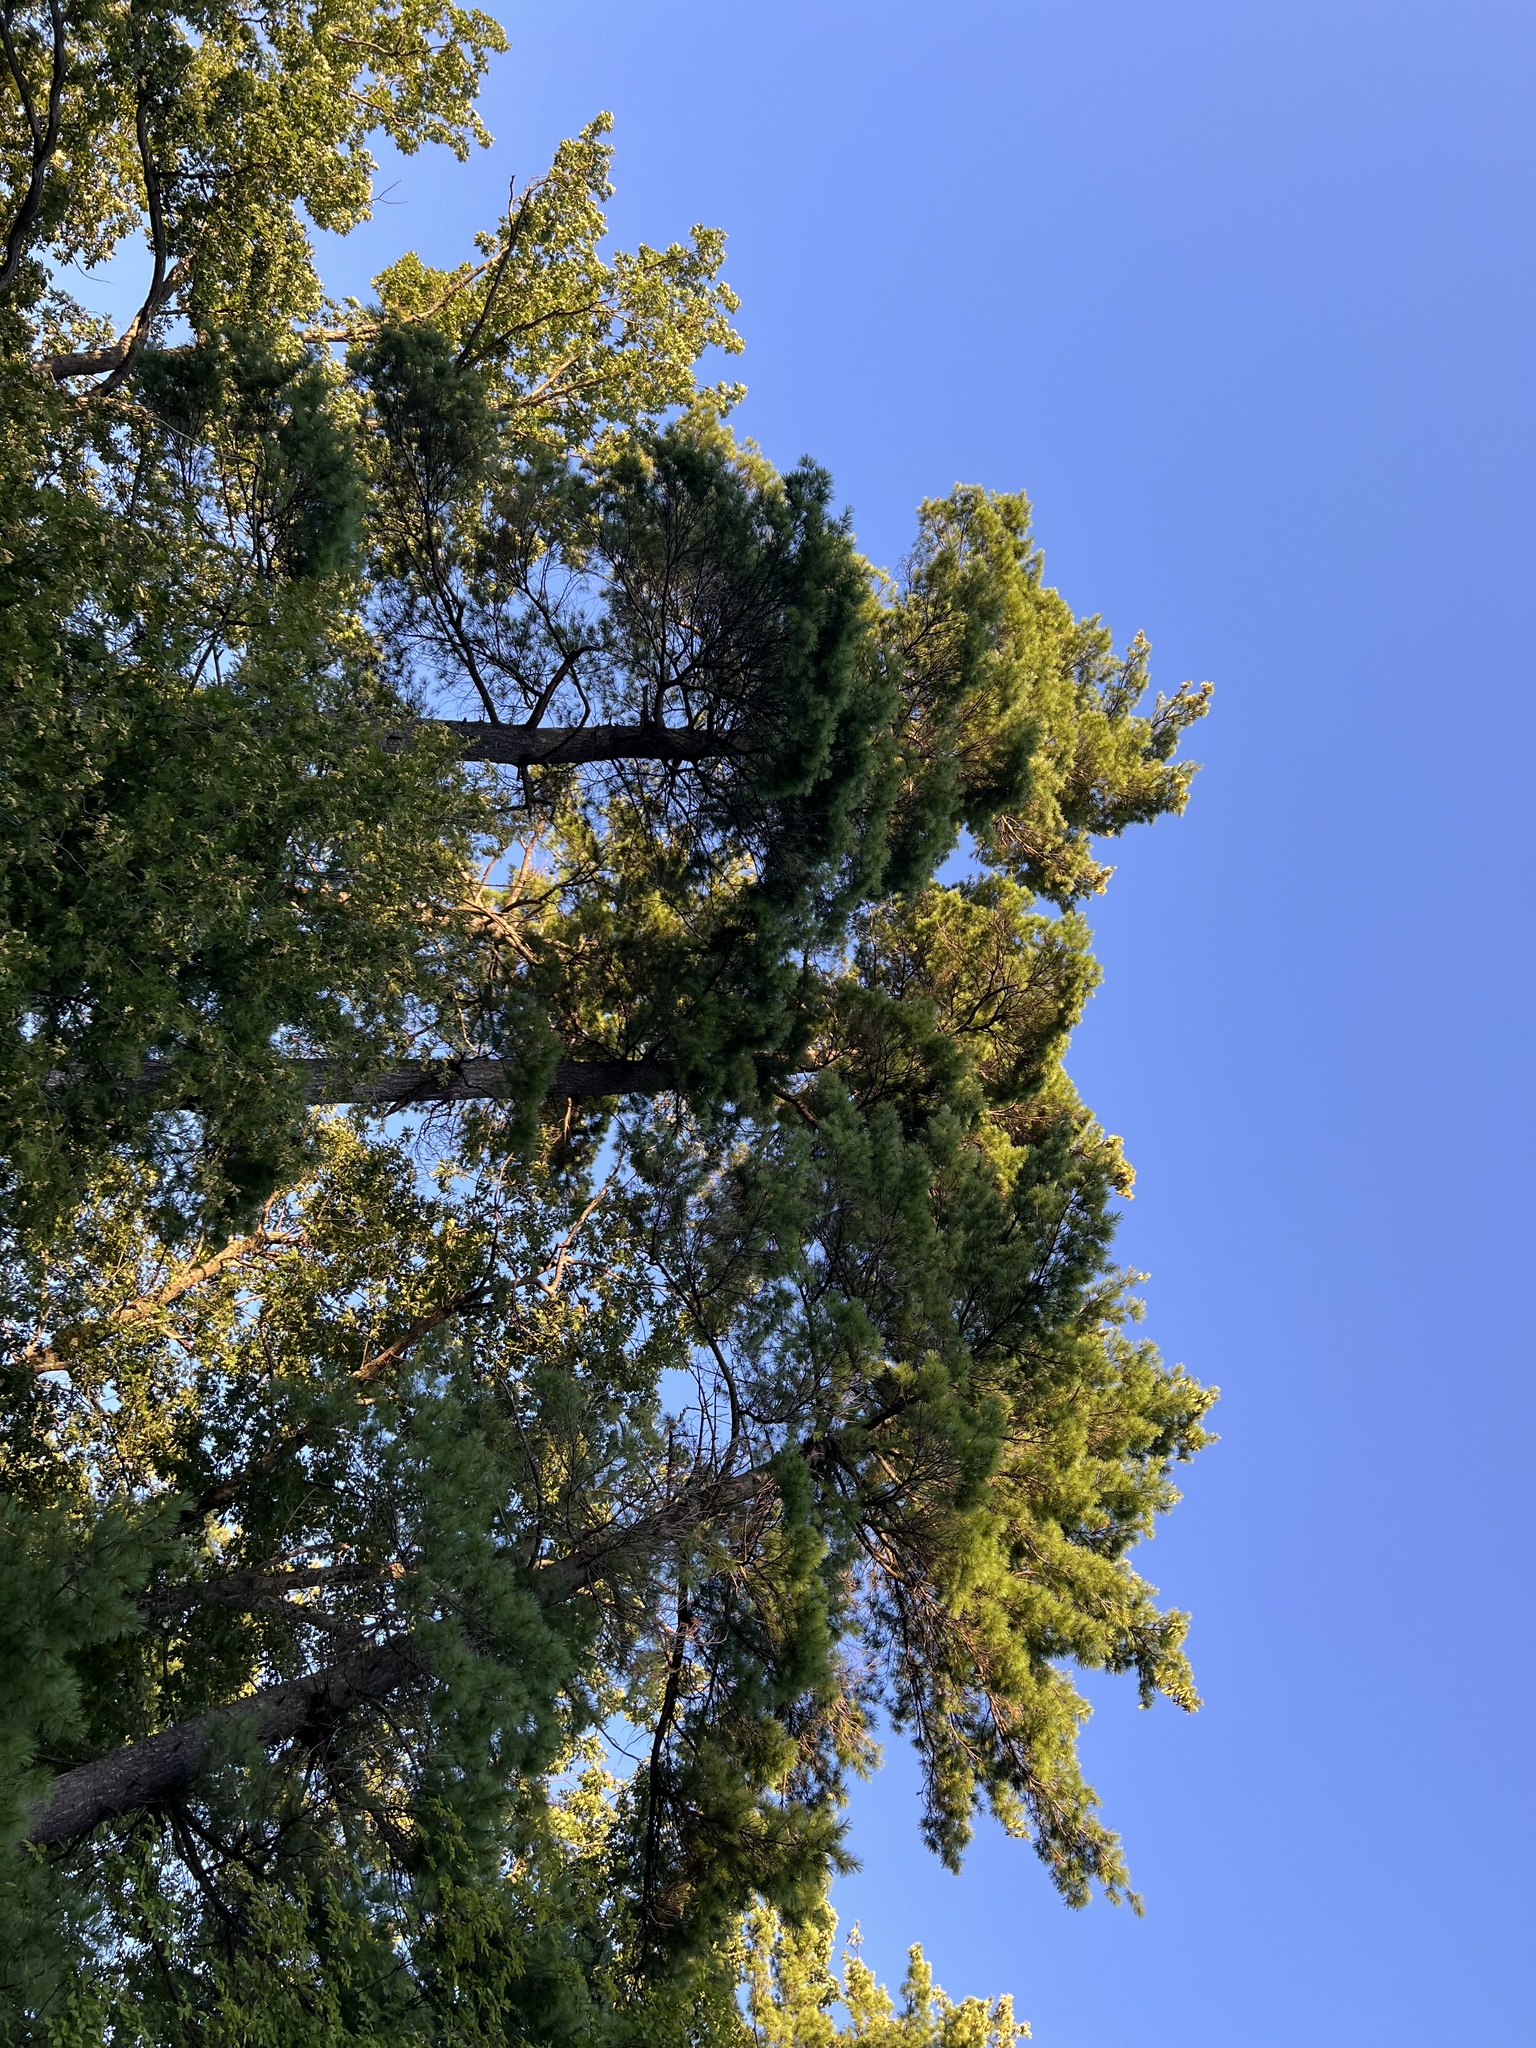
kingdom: Plantae
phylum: Tracheophyta
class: Pinopsida
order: Pinales
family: Pinaceae
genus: Pinus
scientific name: Pinus strobus
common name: Weymouth pine
